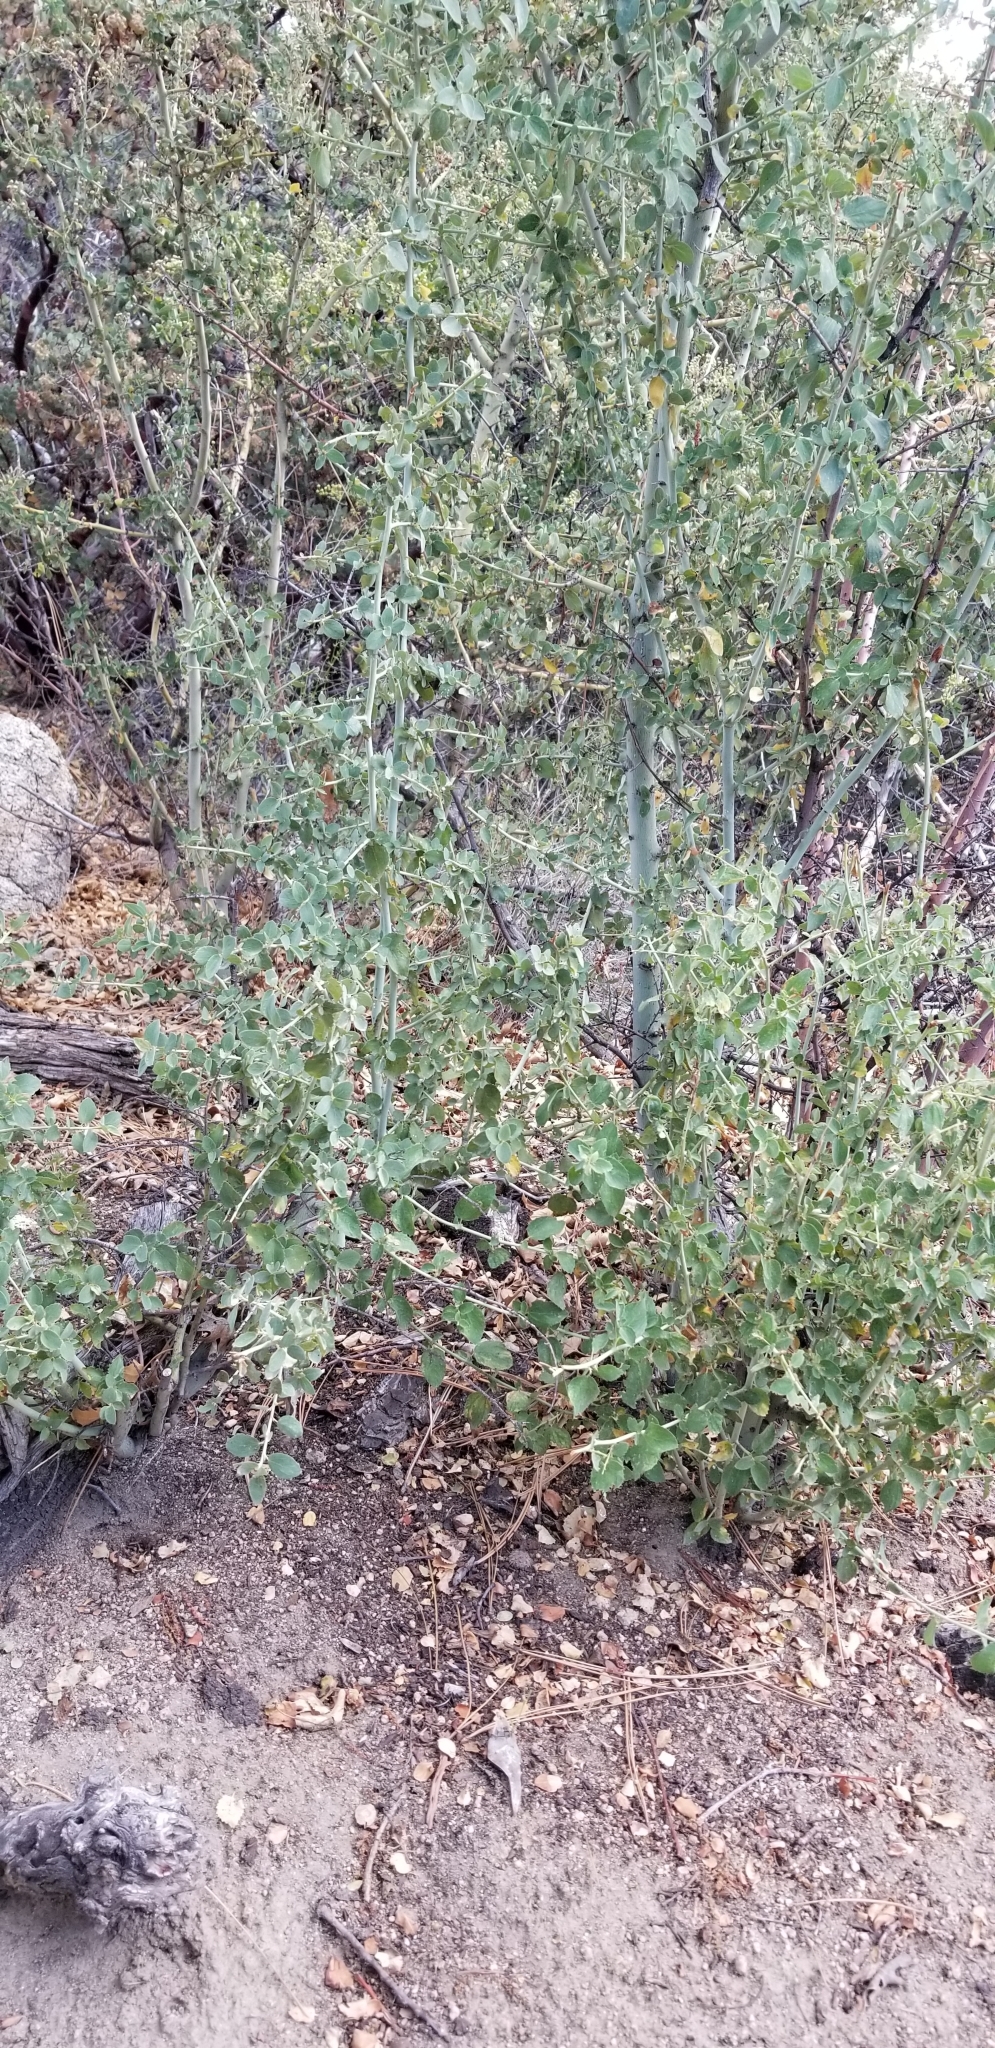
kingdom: Plantae
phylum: Tracheophyta
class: Magnoliopsida
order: Rosales
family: Rhamnaceae
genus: Ceanothus
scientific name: Ceanothus leucodermis
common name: Chaparral whitethorn
